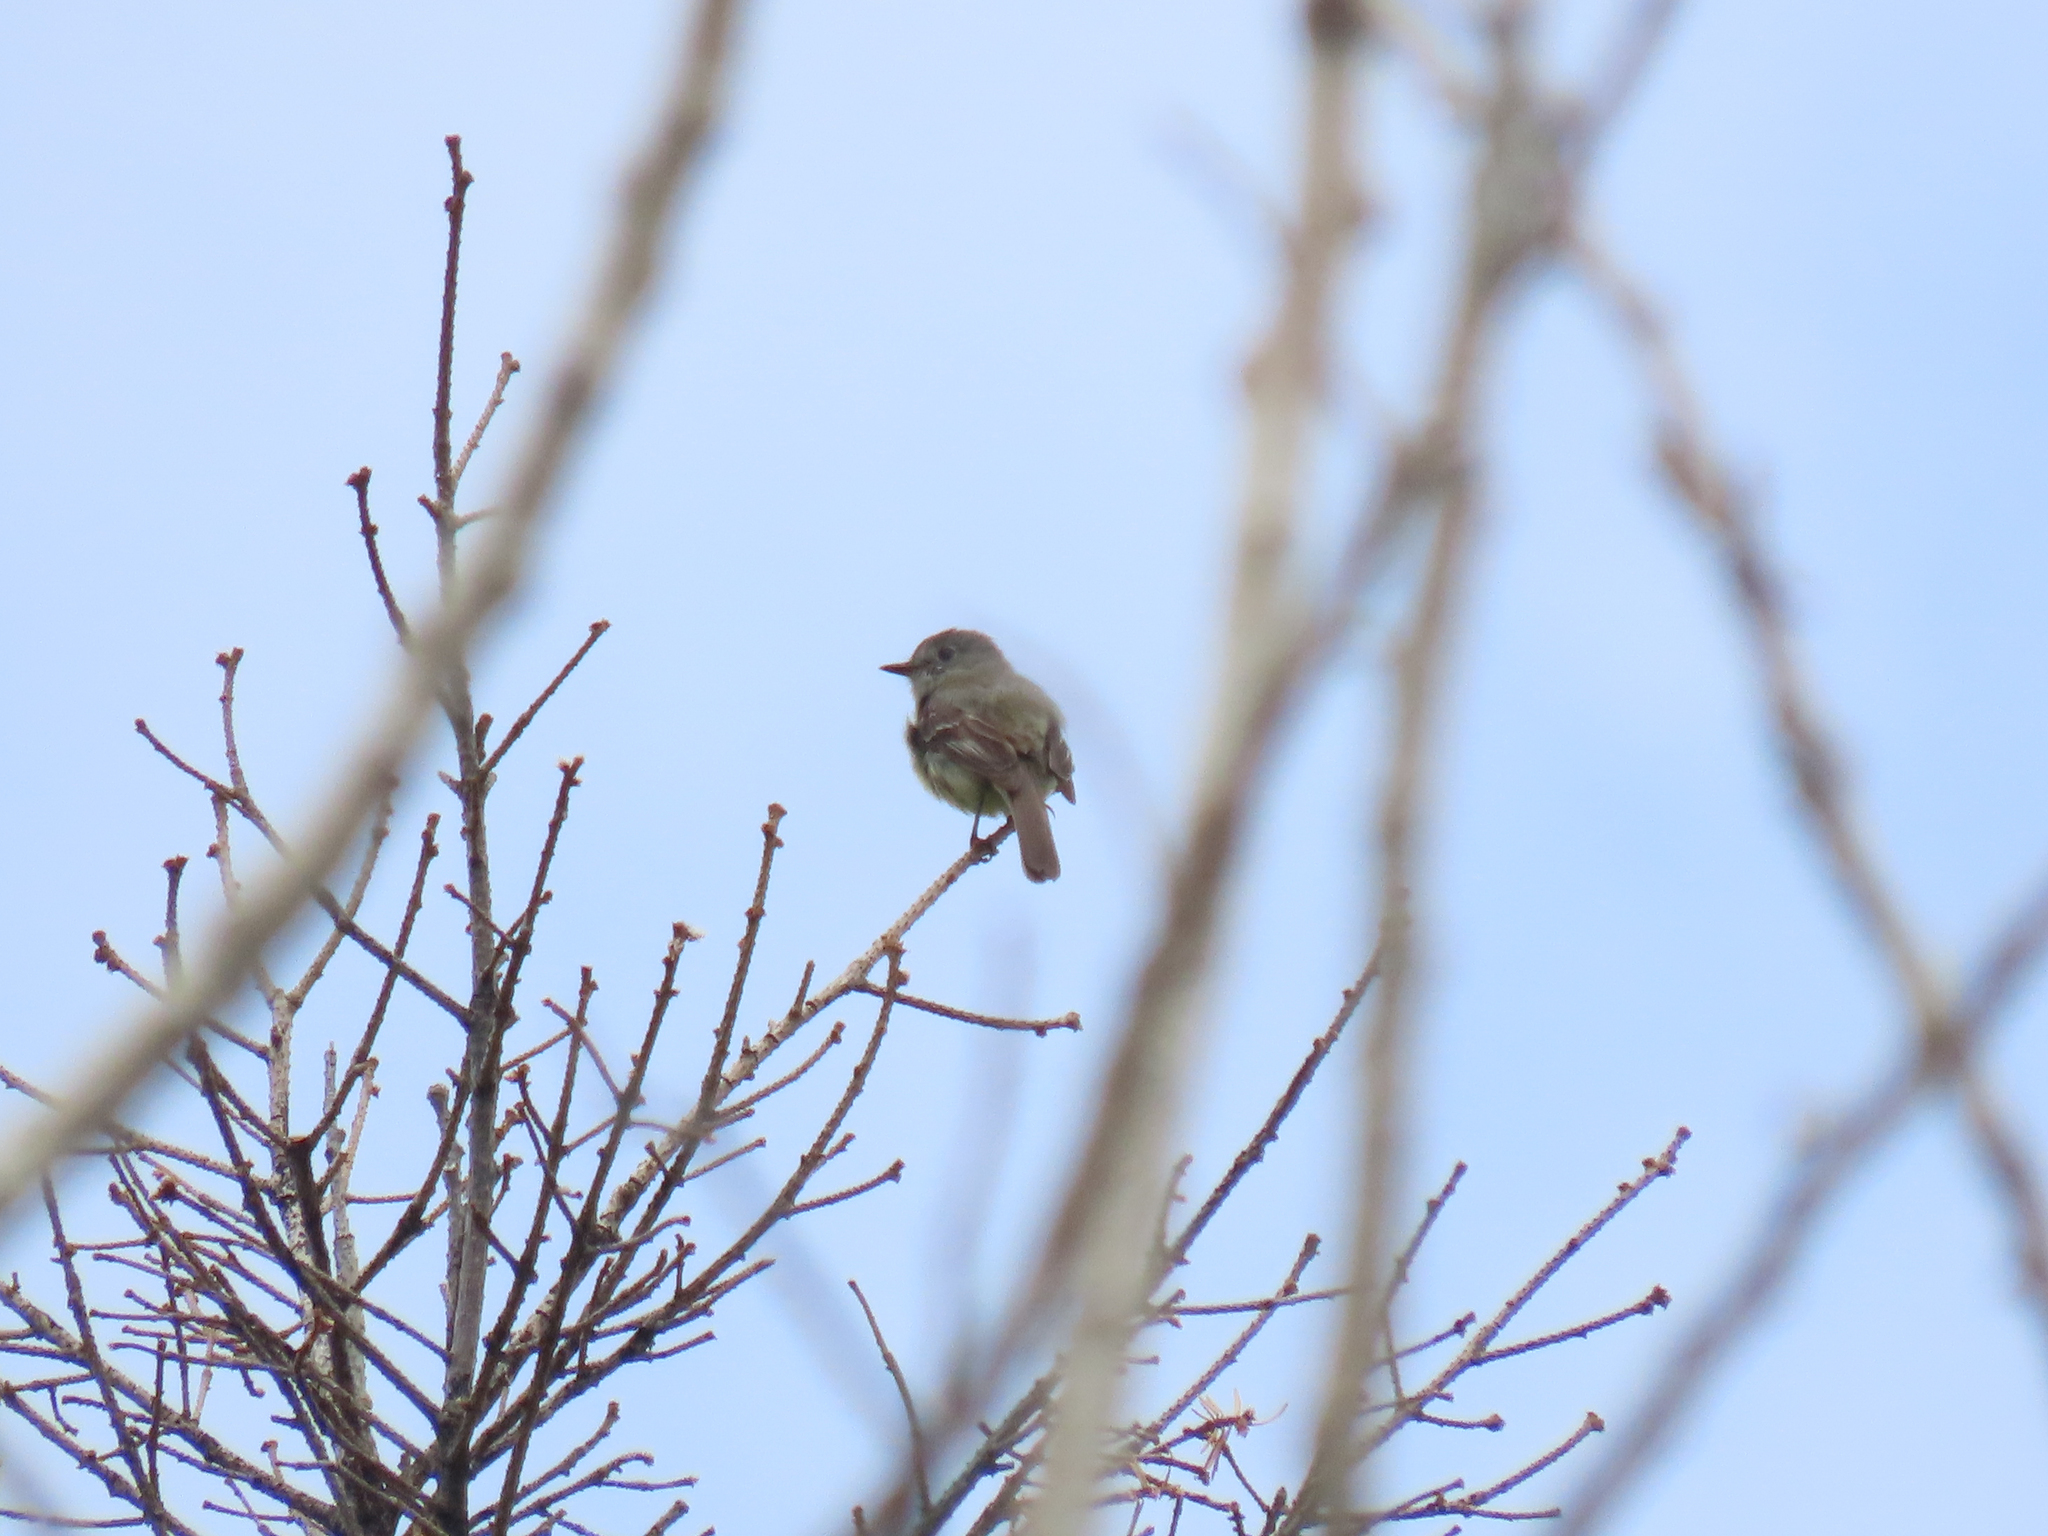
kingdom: Animalia
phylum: Chordata
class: Aves
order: Passeriformes
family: Tyrannidae
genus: Empidonax
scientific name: Empidonax oberholseri
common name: Dusky flycatcher
